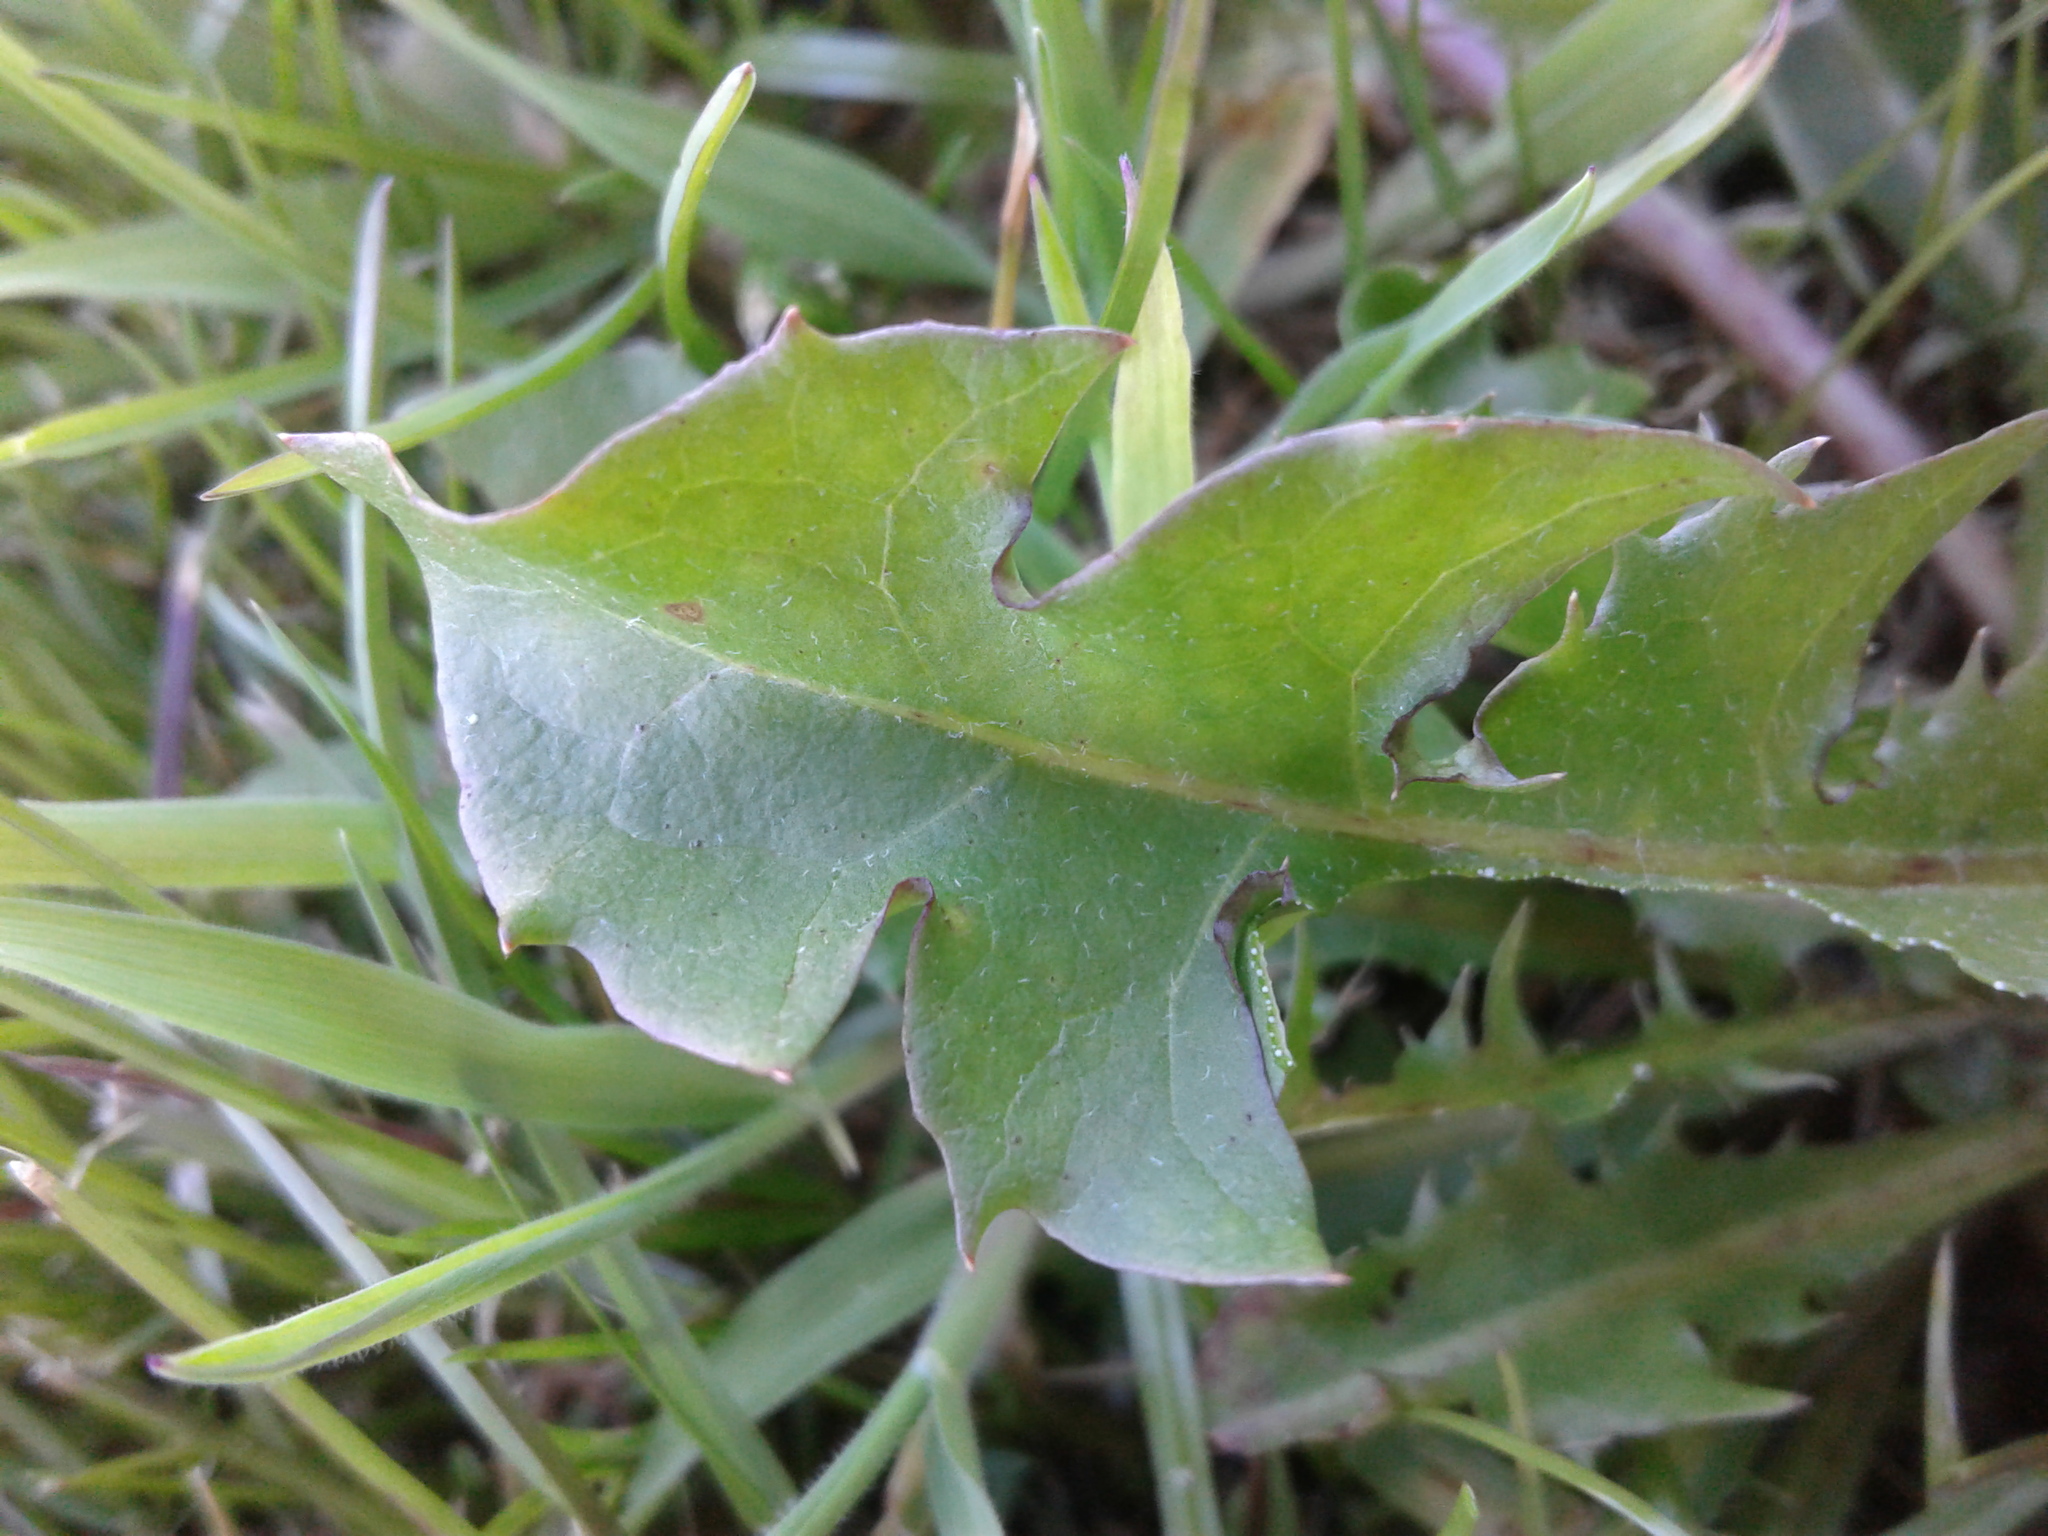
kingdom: Plantae
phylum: Tracheophyta
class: Magnoliopsida
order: Asterales
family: Asteraceae
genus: Taraxacum
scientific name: Taraxacum officinale
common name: Common dandelion
